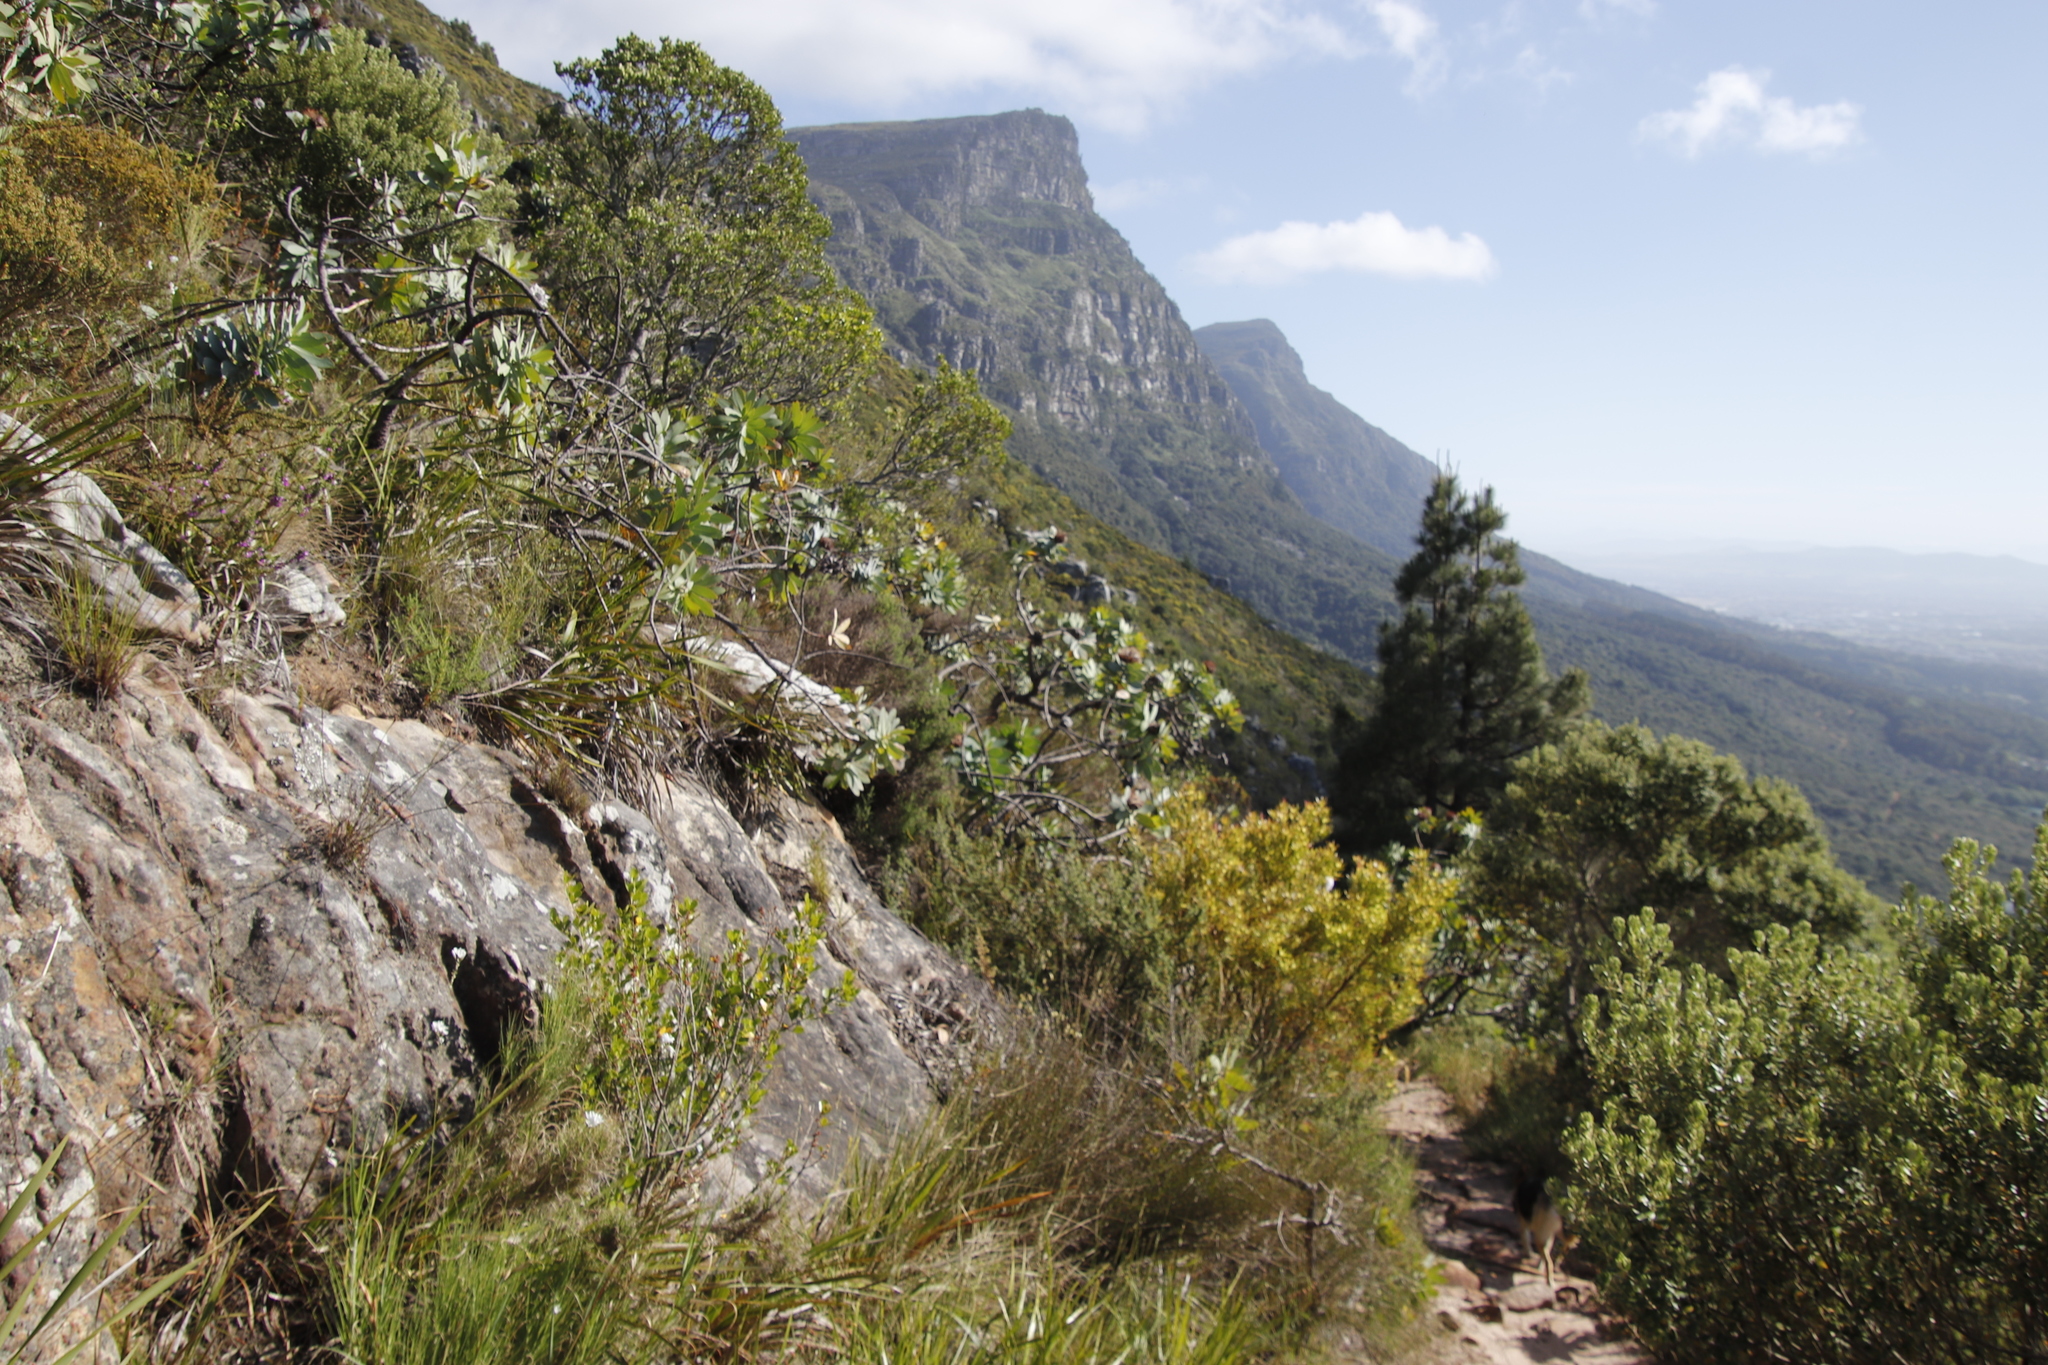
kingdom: Plantae
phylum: Tracheophyta
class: Magnoliopsida
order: Proteales
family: Proteaceae
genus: Protea
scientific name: Protea nitida
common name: Tree protea
